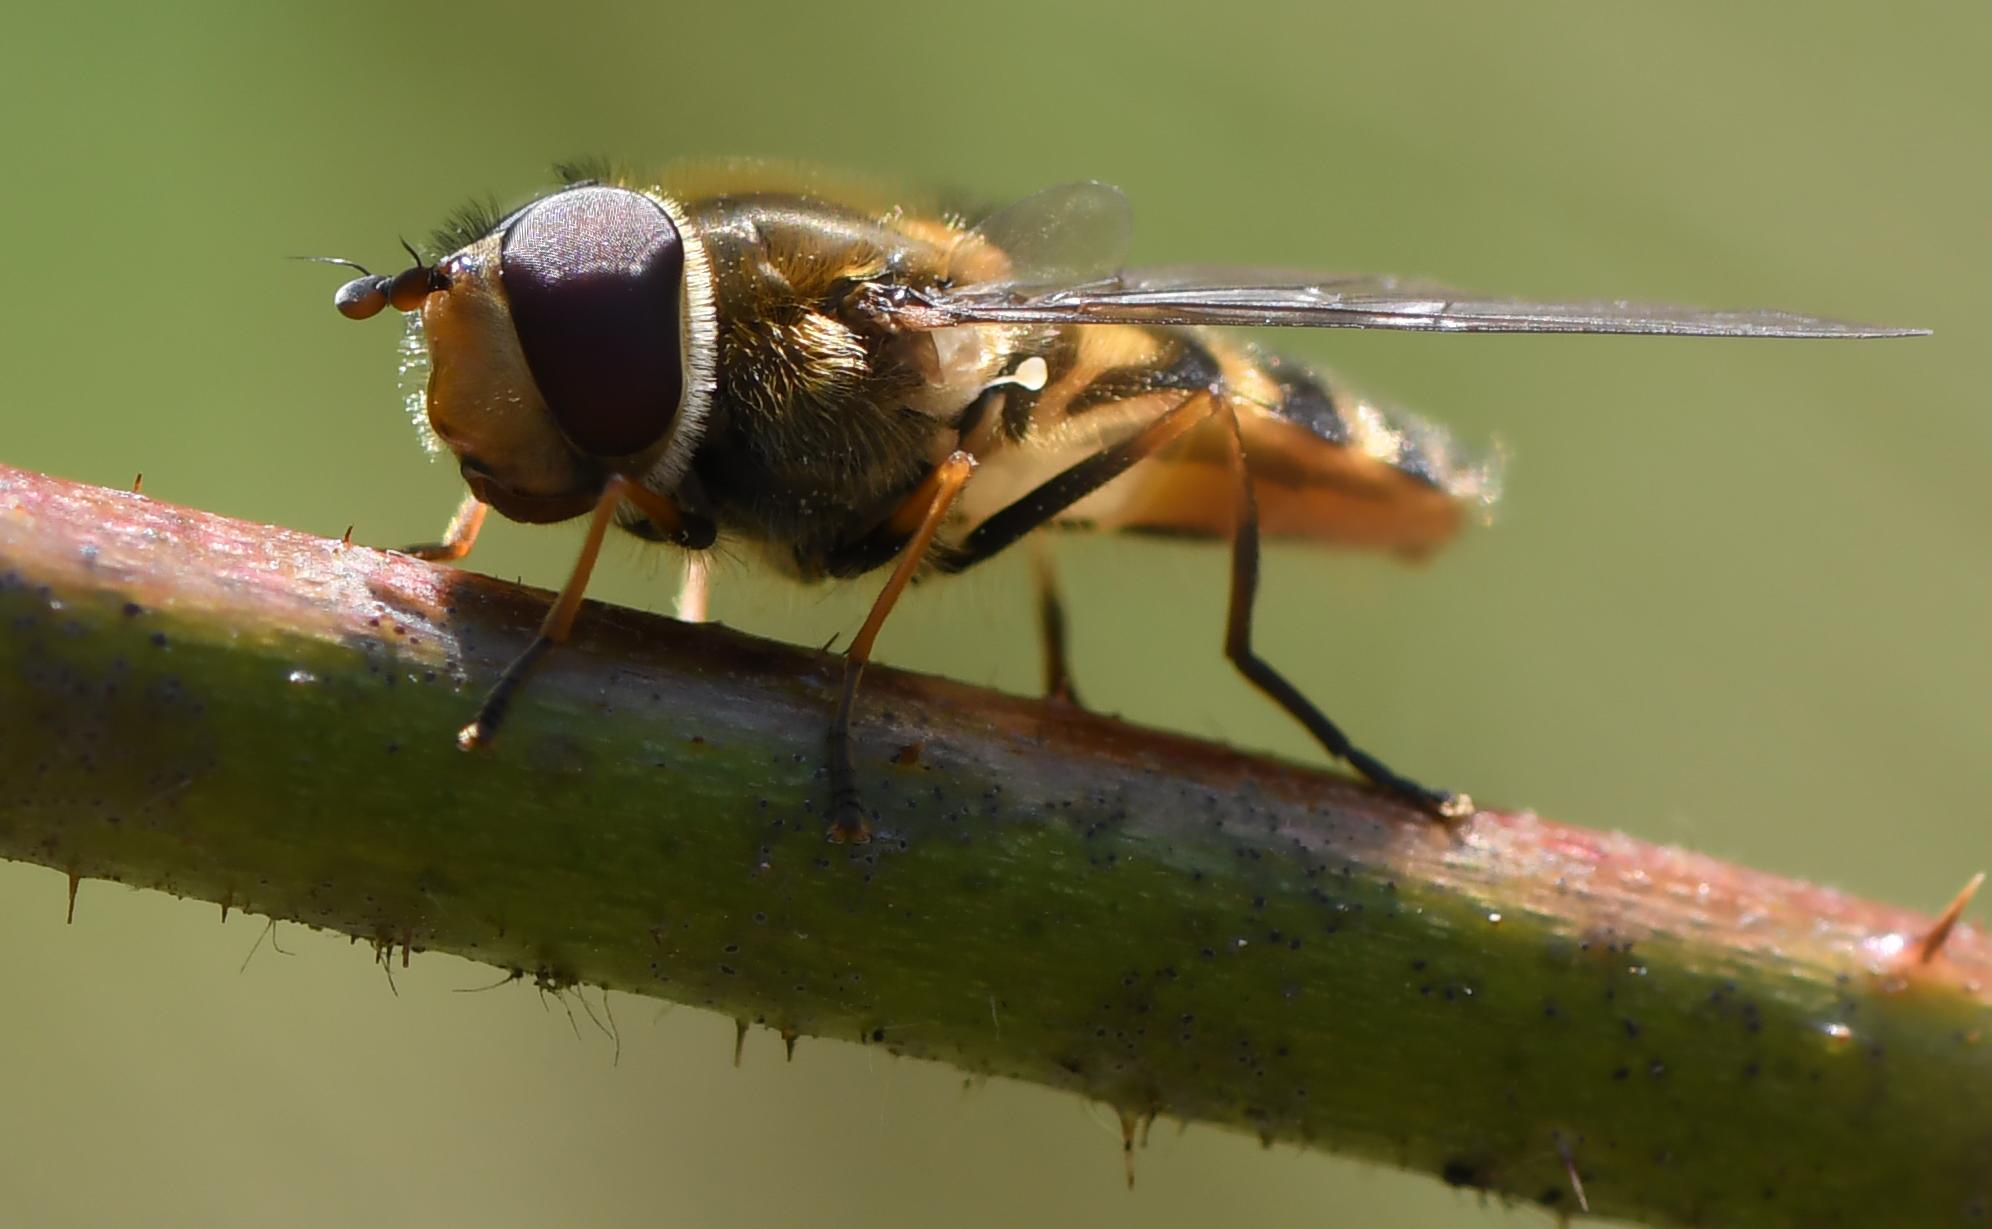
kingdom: Animalia
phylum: Arthropoda
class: Insecta
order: Diptera
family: Syrphidae
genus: Syrphus
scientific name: Syrphus
